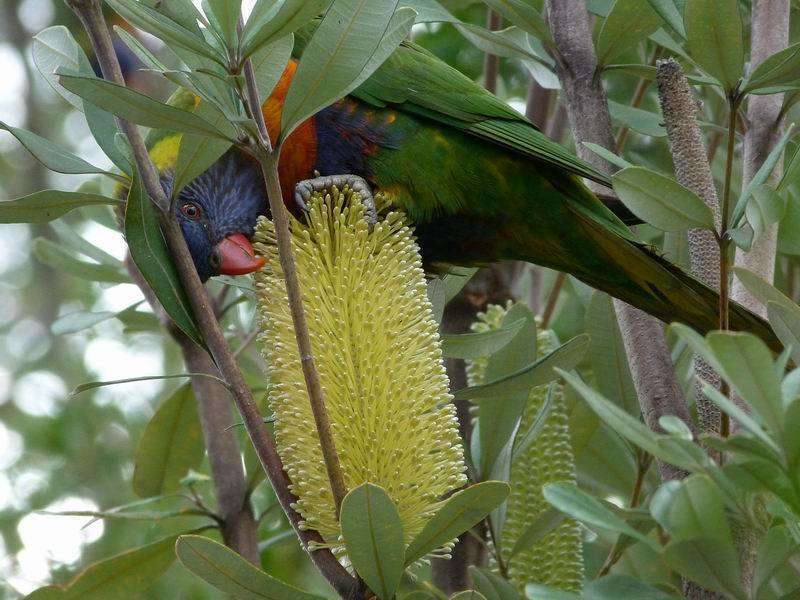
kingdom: Animalia
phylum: Chordata
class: Aves
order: Psittaciformes
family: Psittacidae
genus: Trichoglossus
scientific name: Trichoglossus haematodus
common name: Coconut lorikeet
